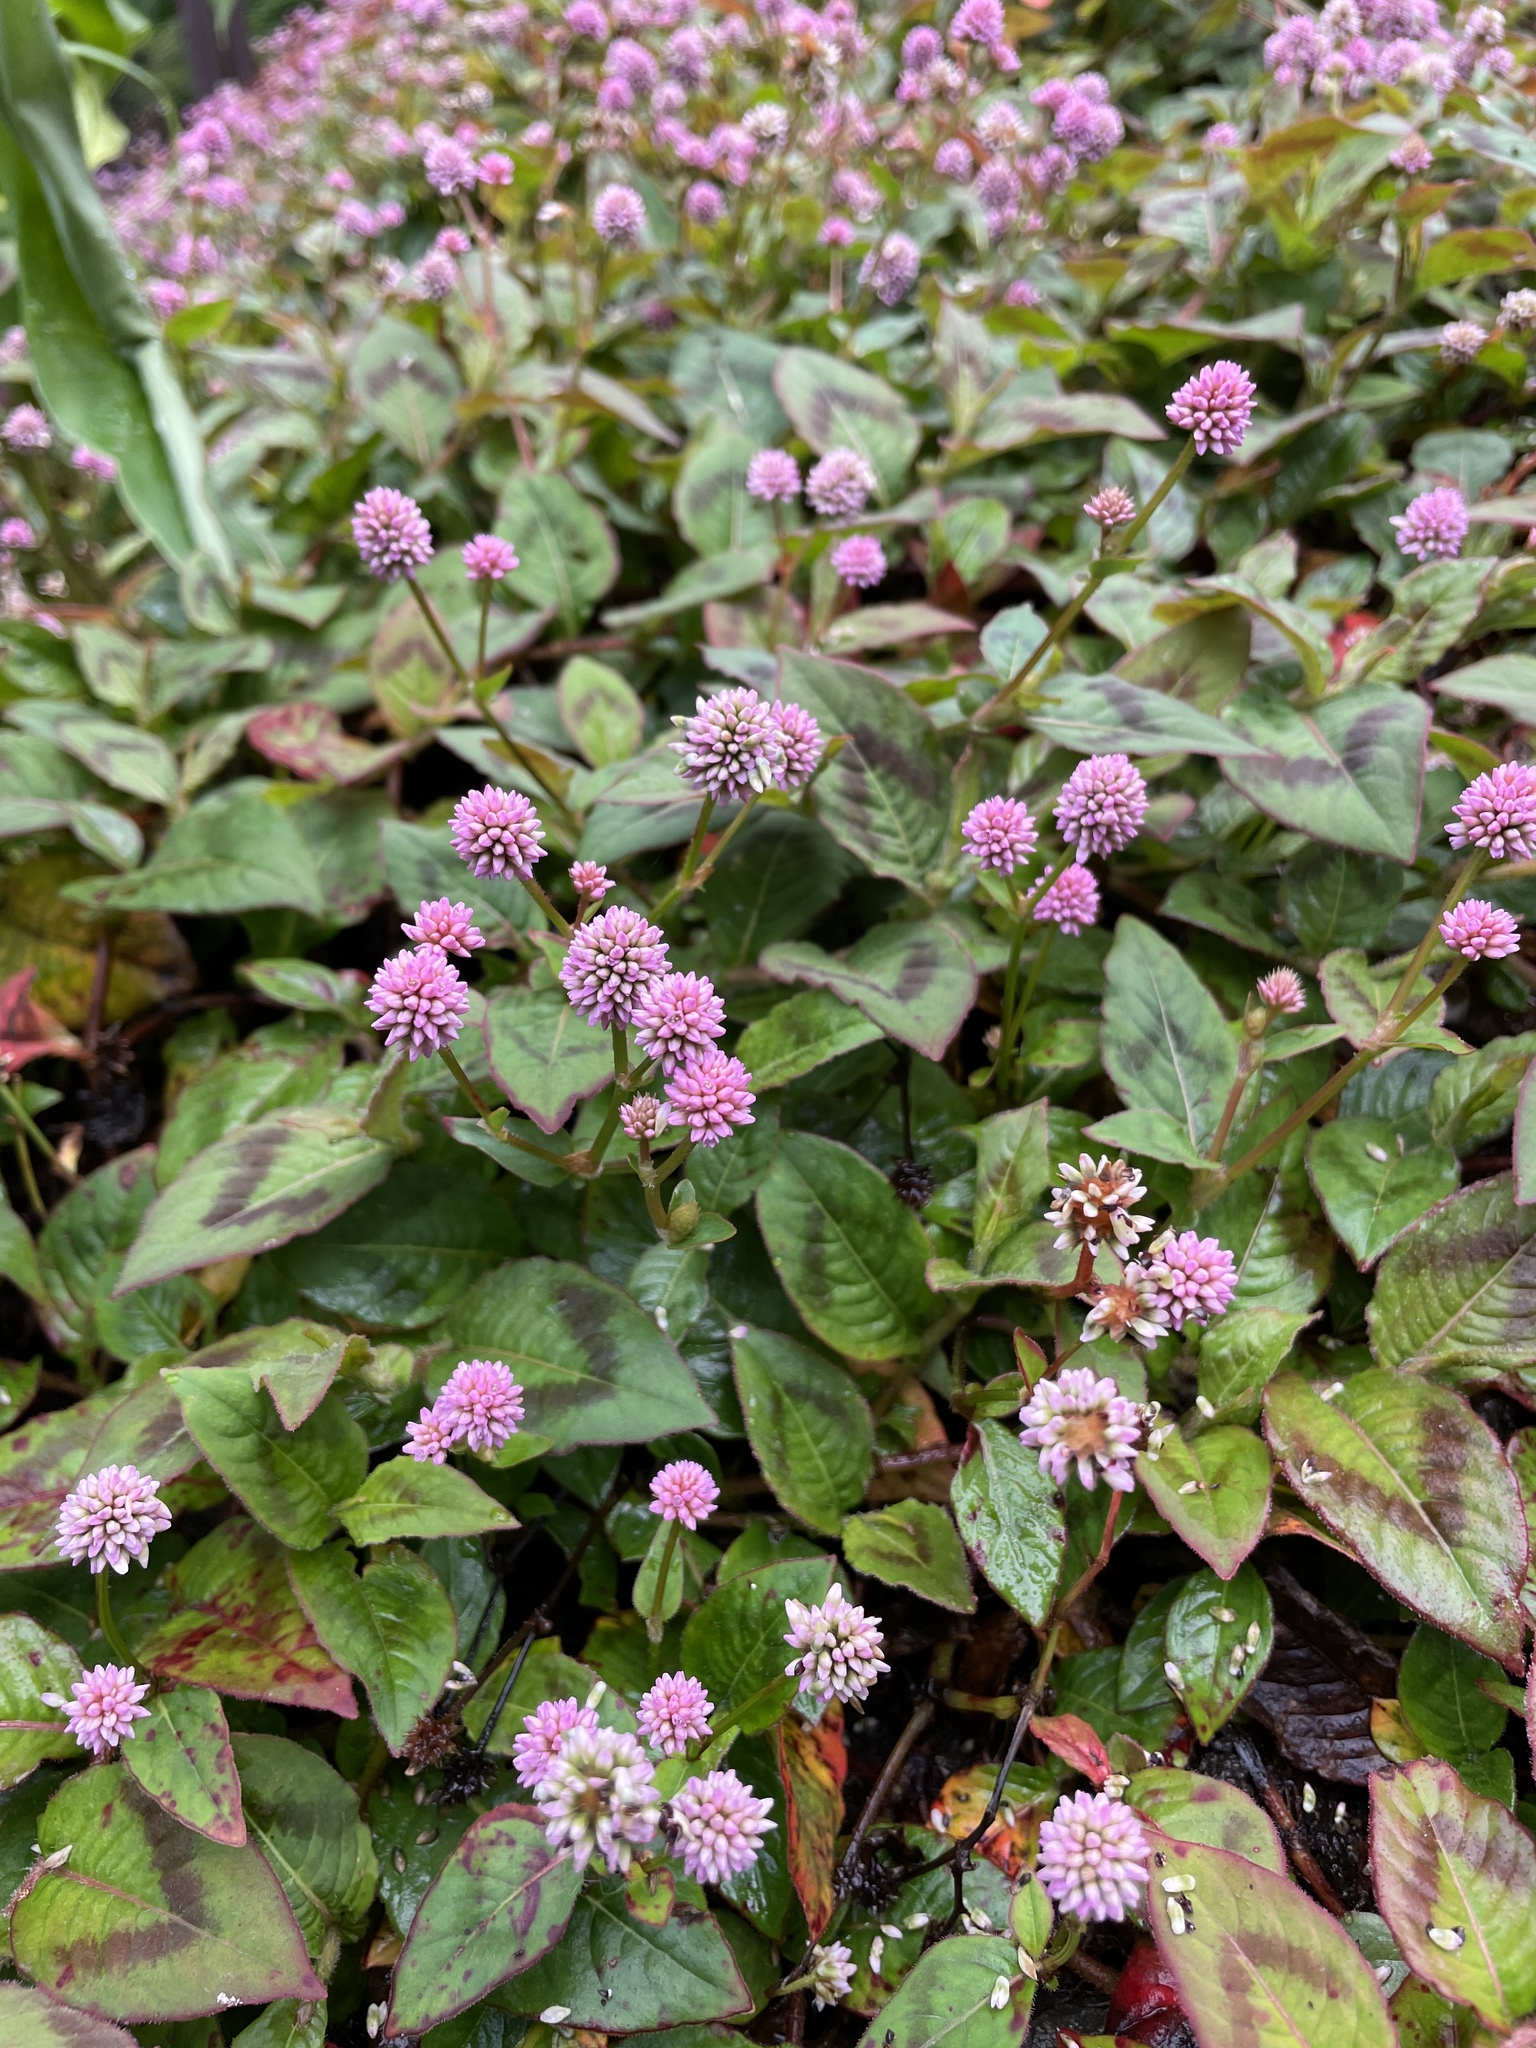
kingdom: Plantae
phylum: Tracheophyta
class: Magnoliopsida
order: Caryophyllales
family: Polygonaceae
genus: Persicaria
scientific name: Persicaria capitata
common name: Pinkhead smartweed
